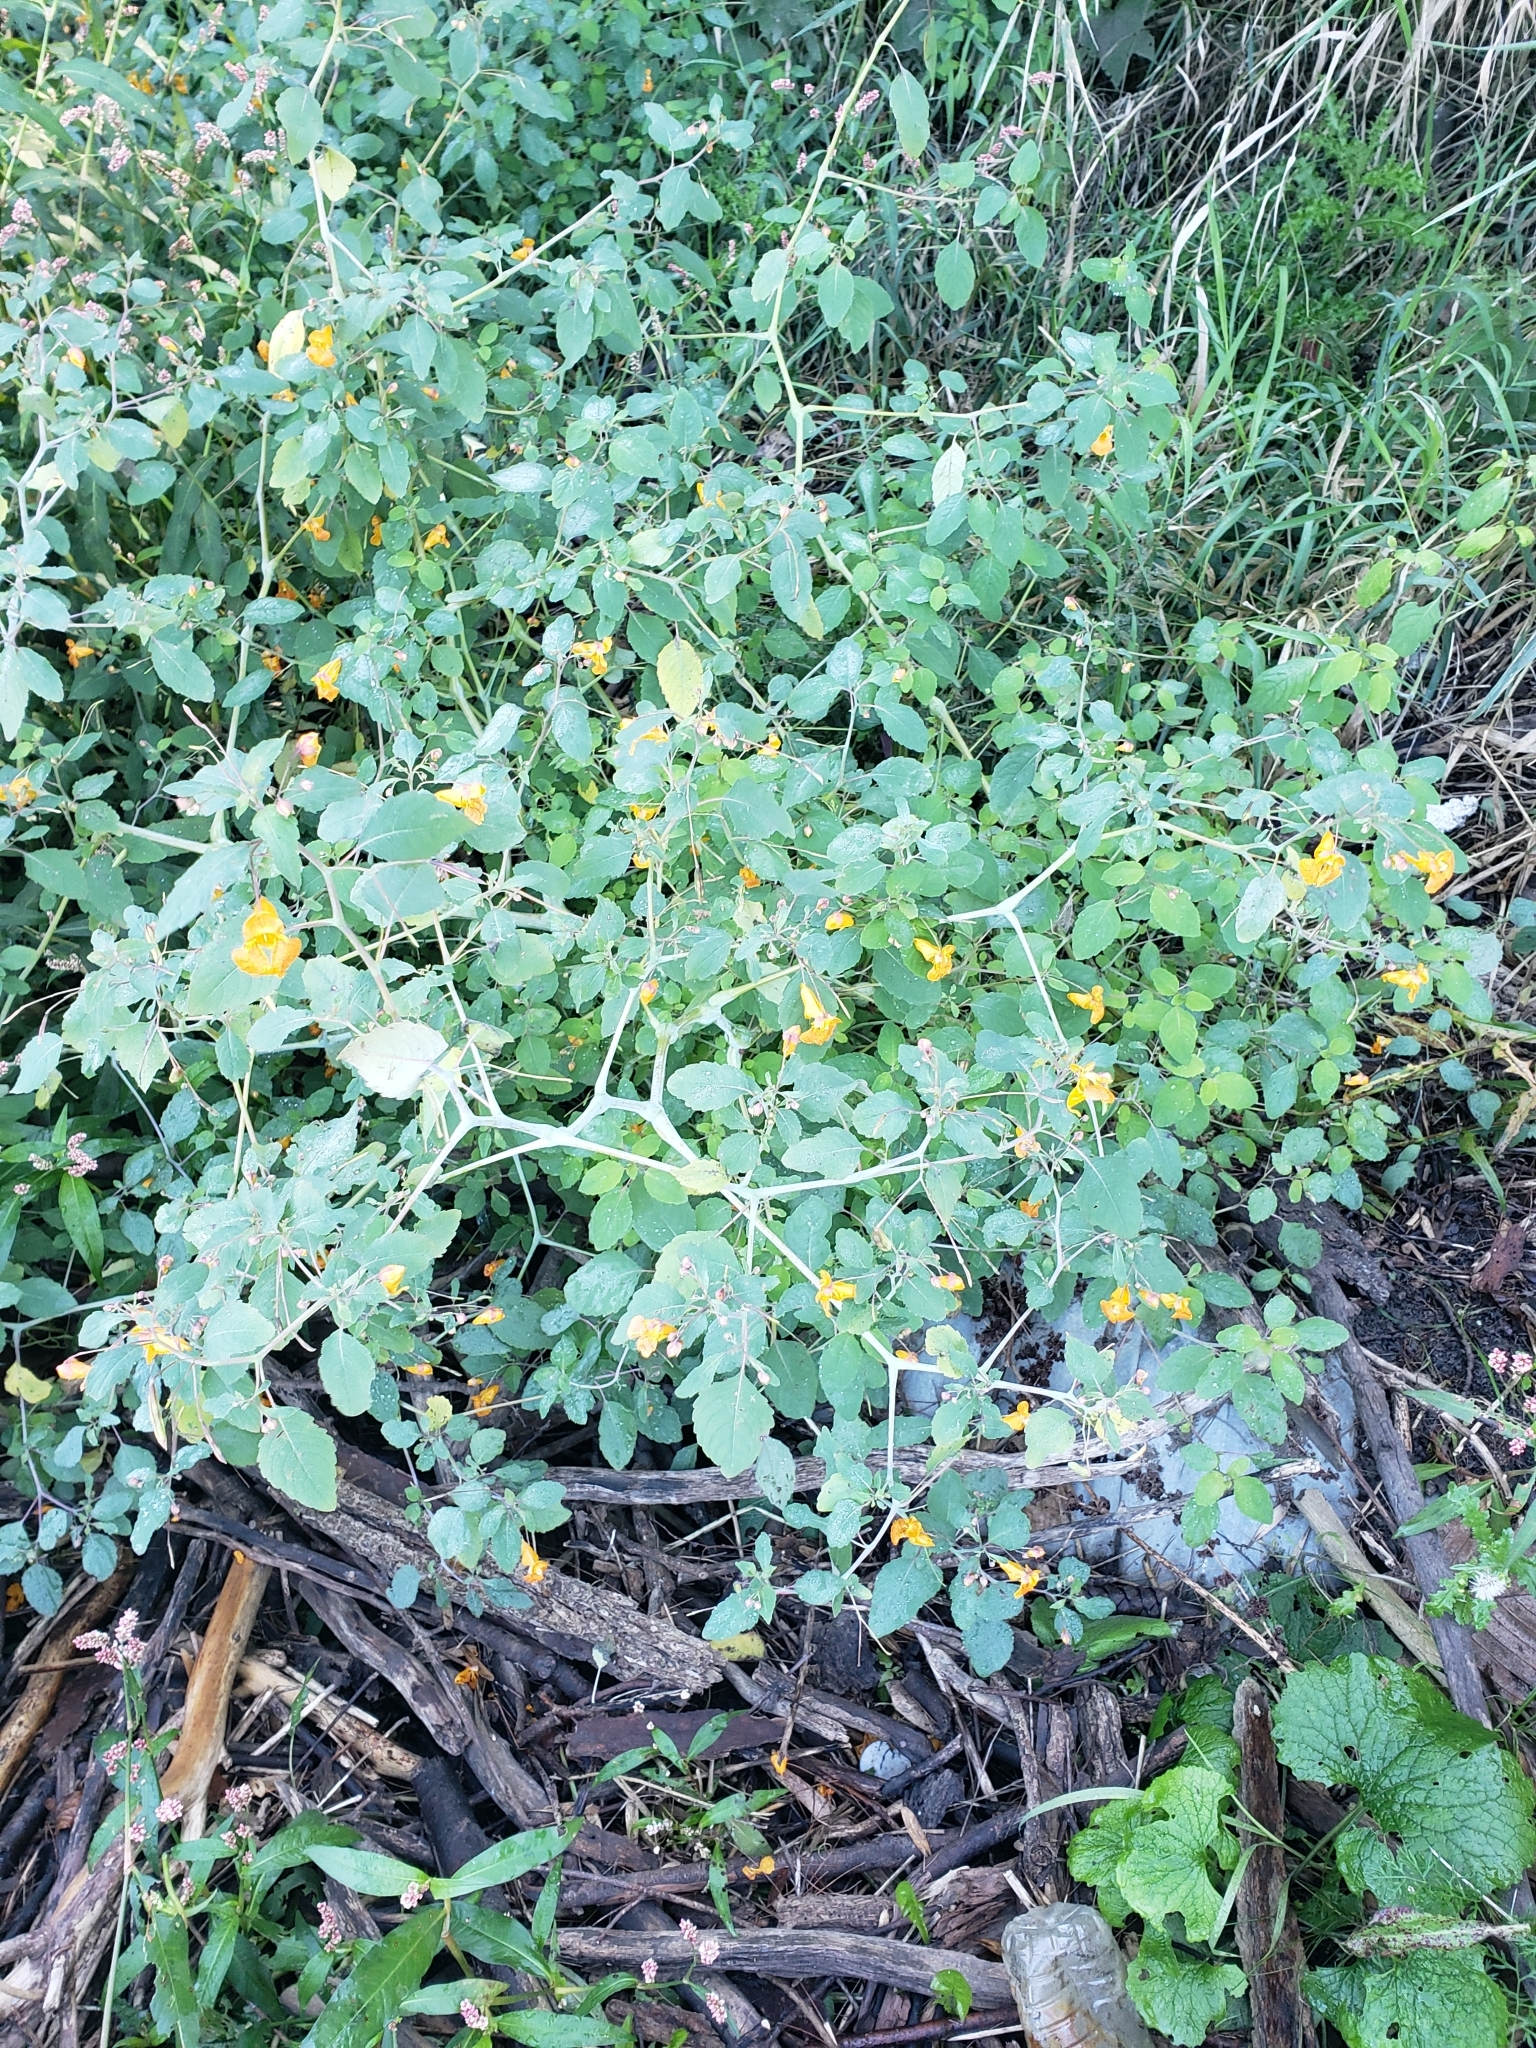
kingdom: Plantae
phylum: Tracheophyta
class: Magnoliopsida
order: Ericales
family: Balsaminaceae
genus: Impatiens
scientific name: Impatiens capensis
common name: Orange balsam
